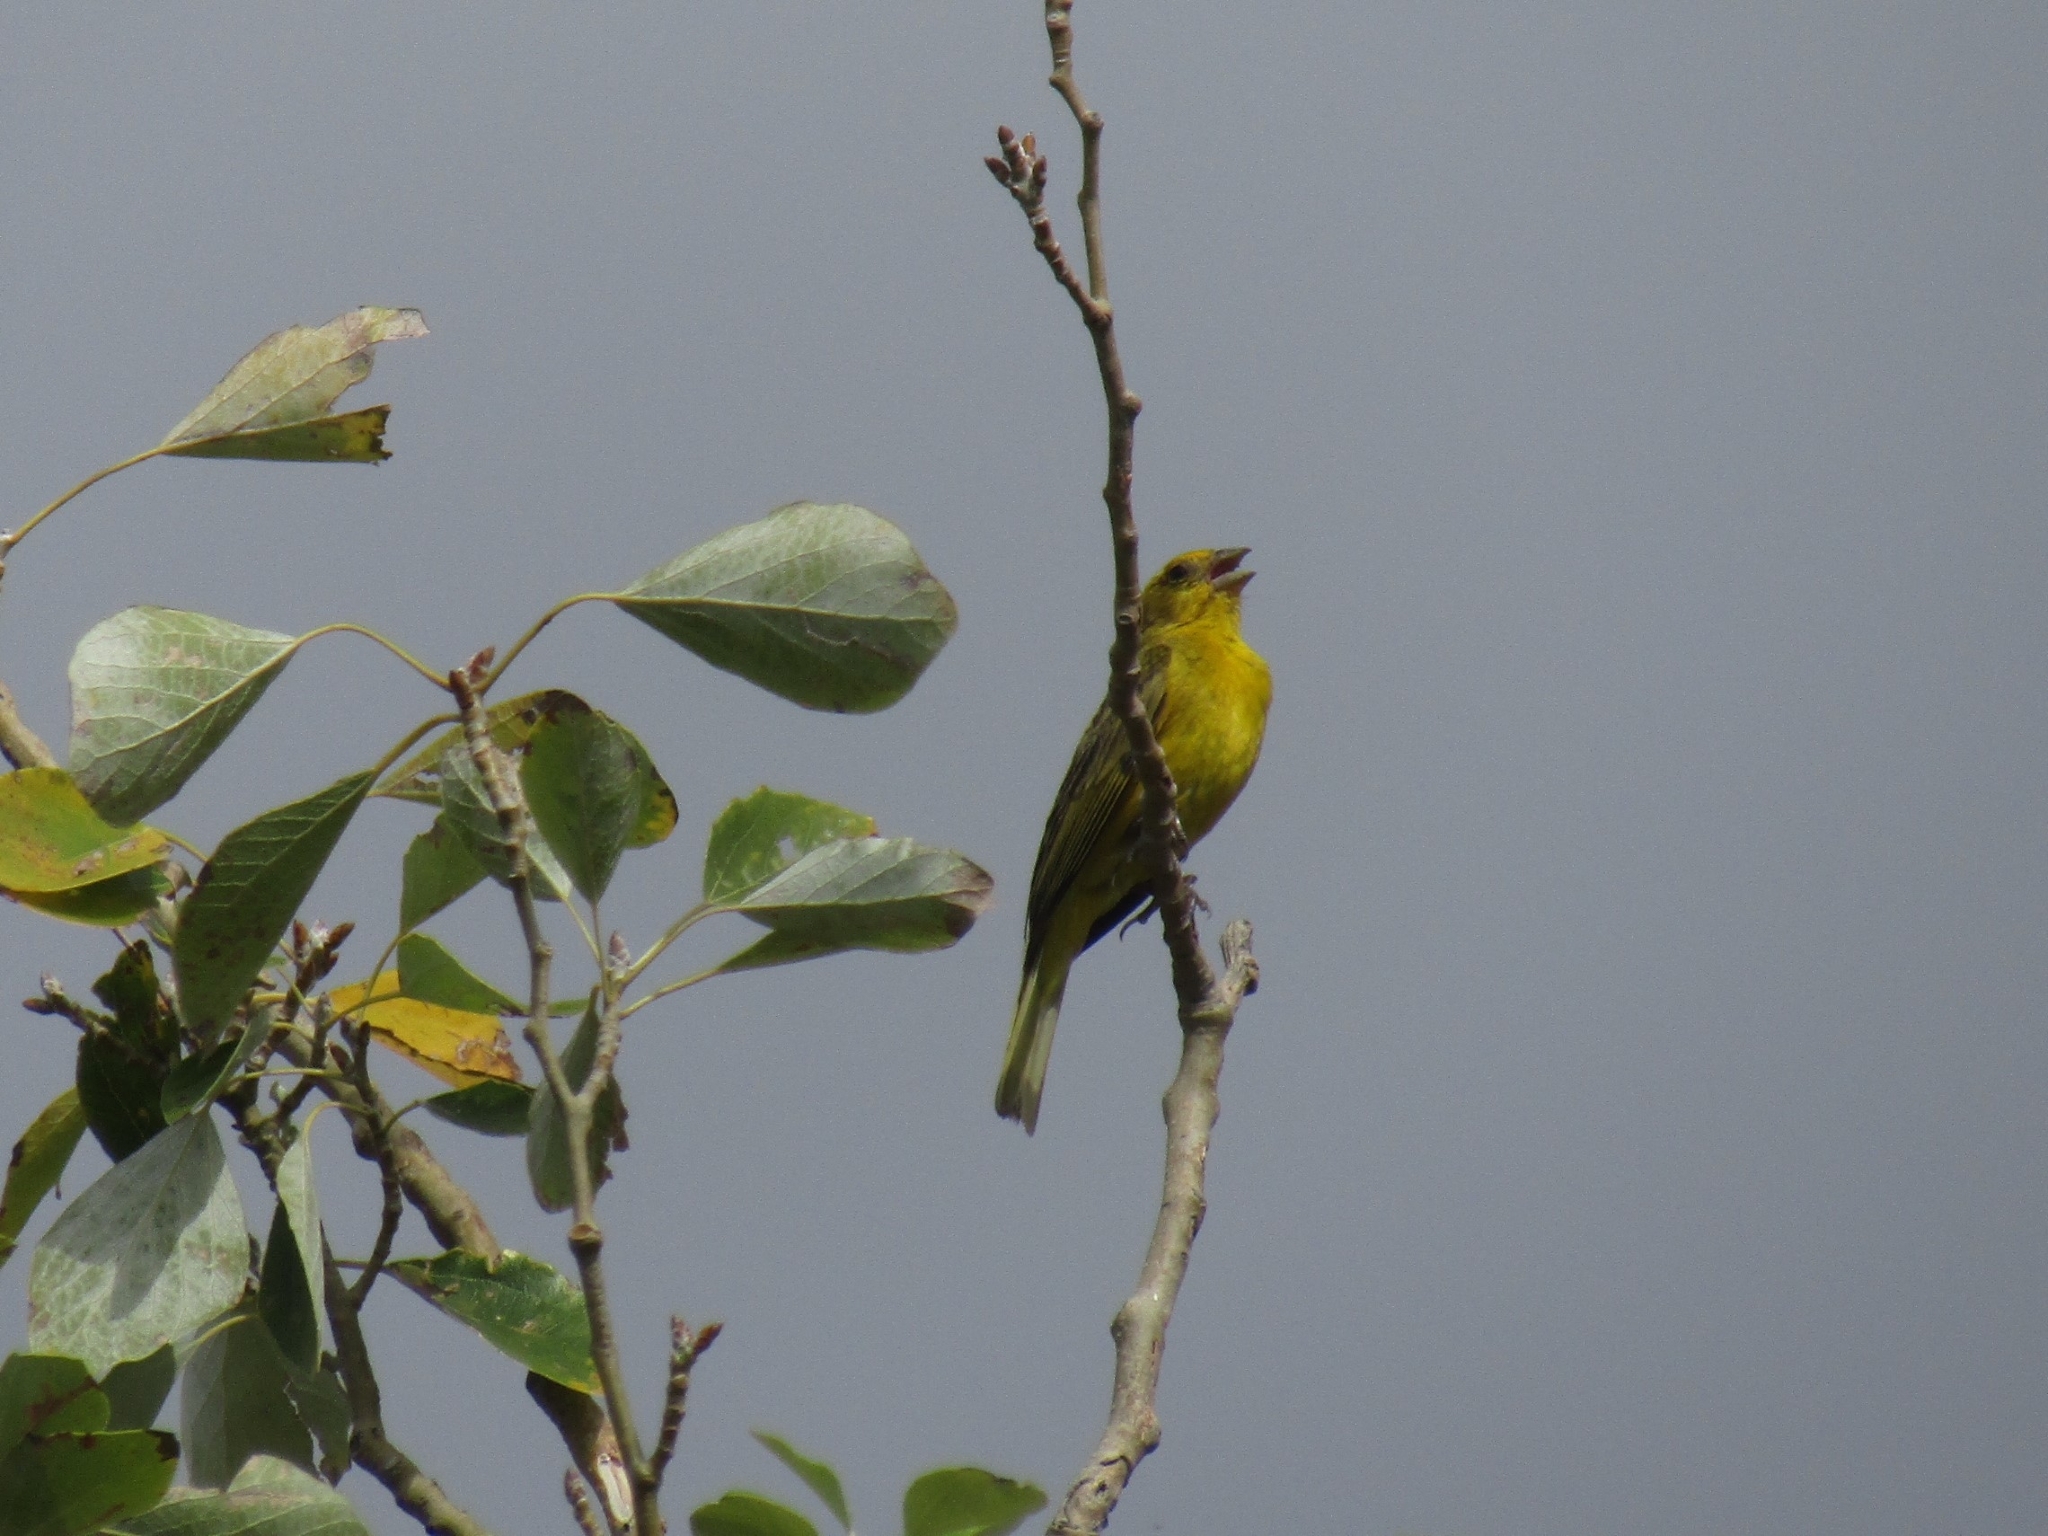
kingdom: Animalia
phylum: Chordata
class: Aves
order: Passeriformes
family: Thraupidae
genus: Sicalis
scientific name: Sicalis flaveola
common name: Saffron finch
